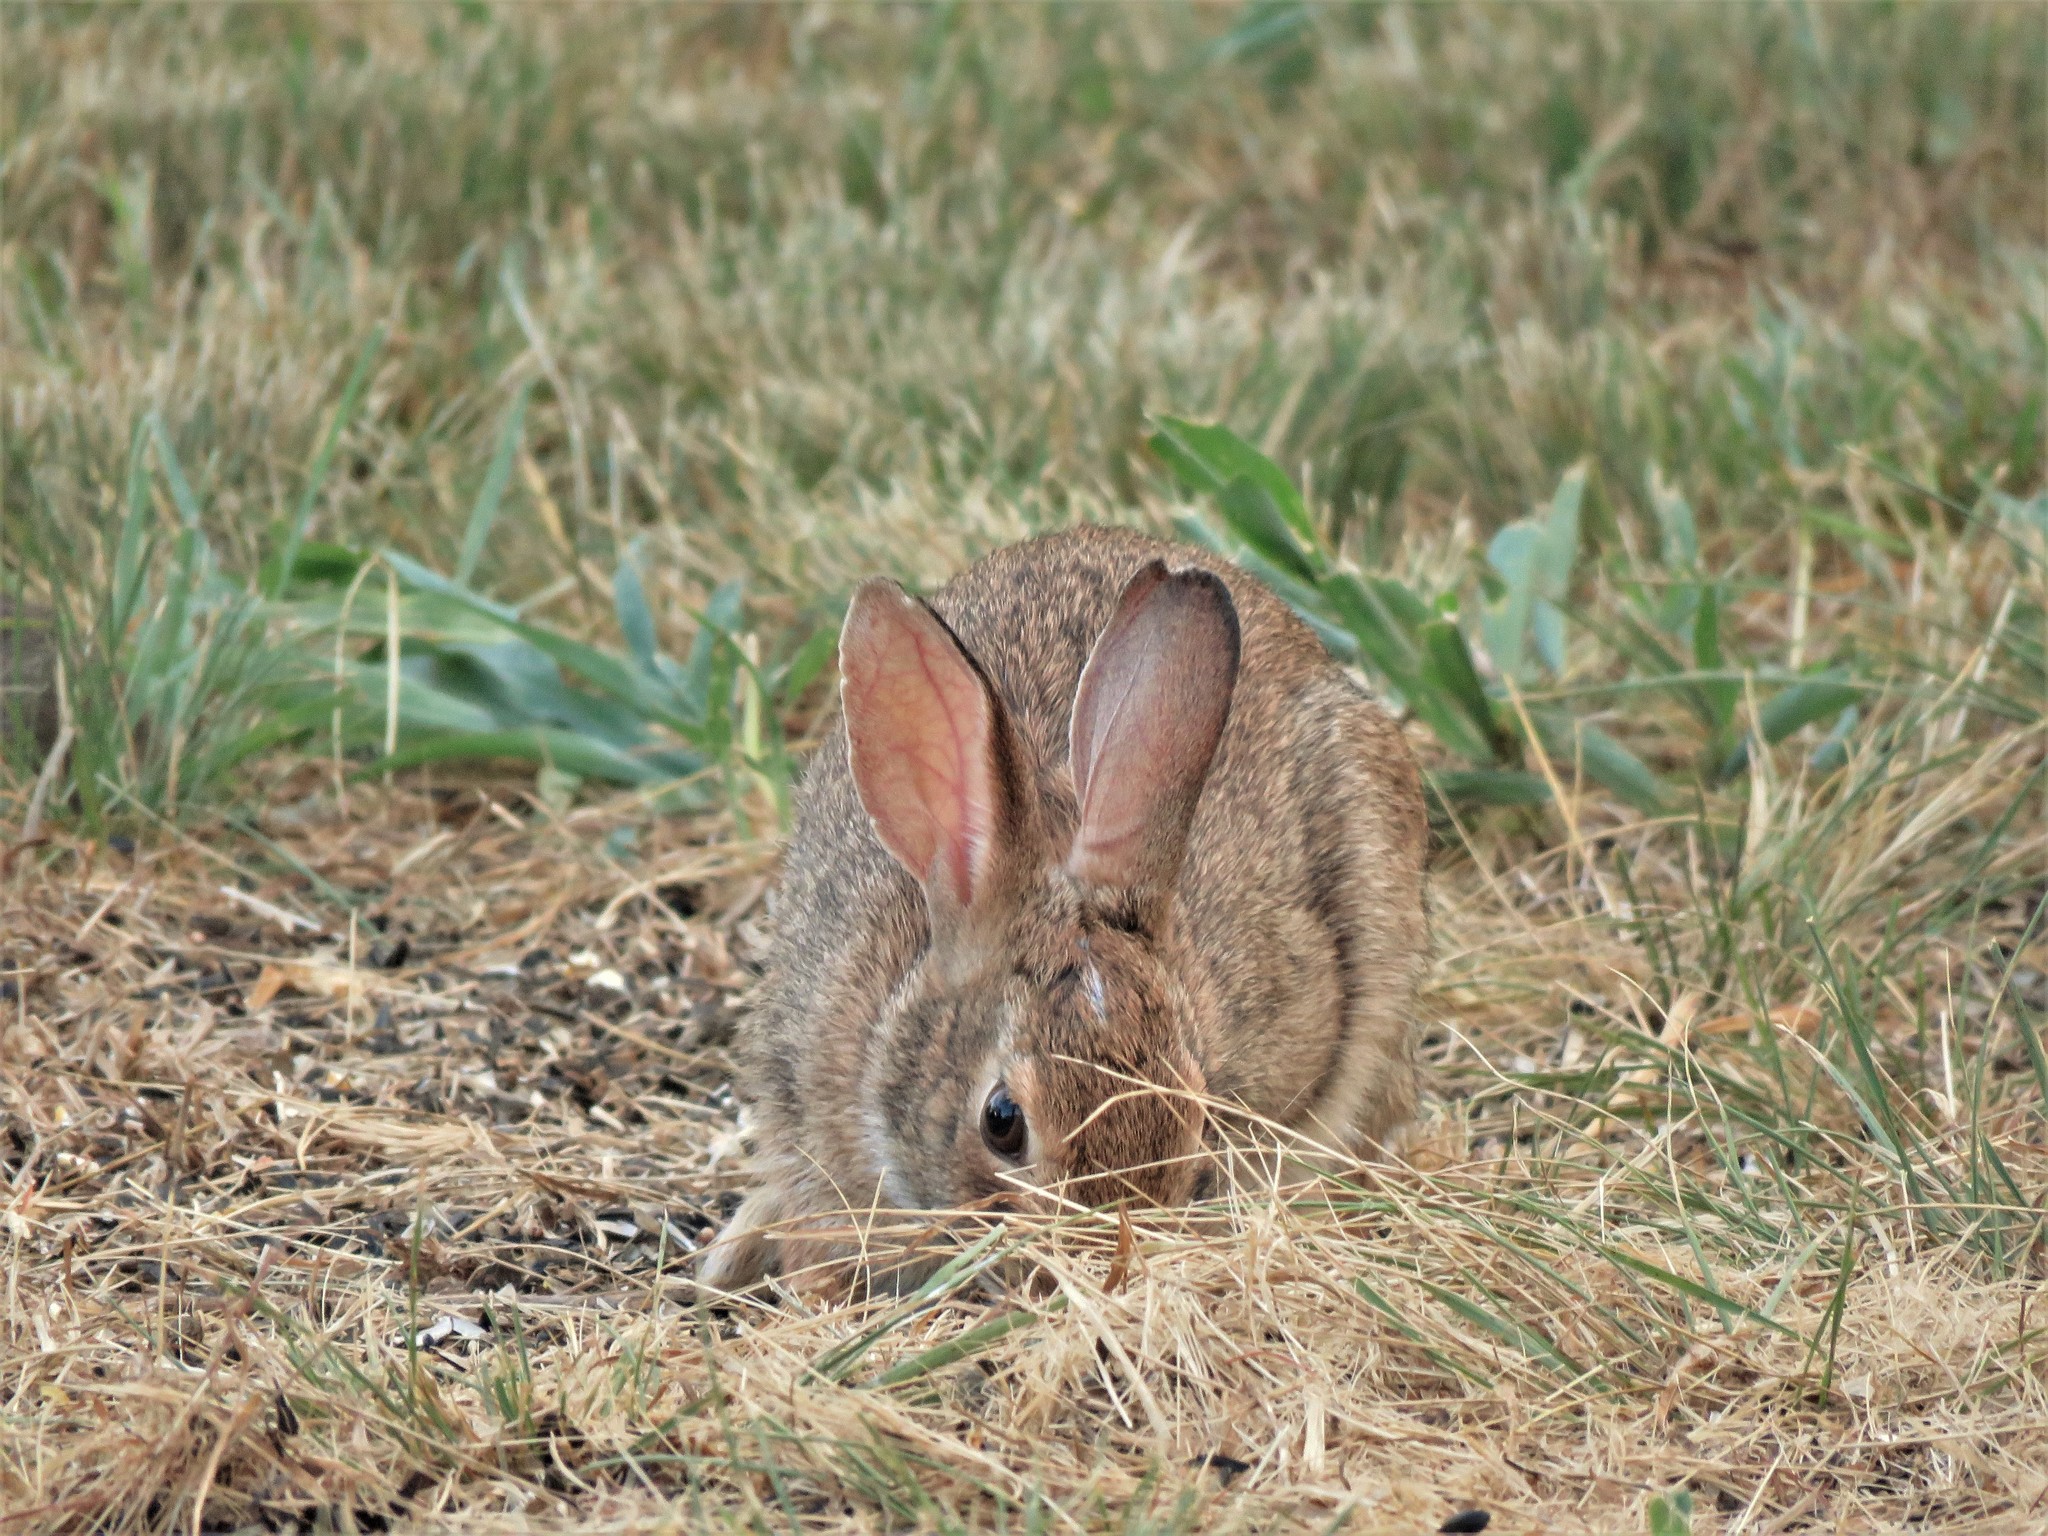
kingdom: Animalia
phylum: Chordata
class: Mammalia
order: Lagomorpha
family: Leporidae
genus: Sylvilagus
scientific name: Sylvilagus floridanus
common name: Eastern cottontail
